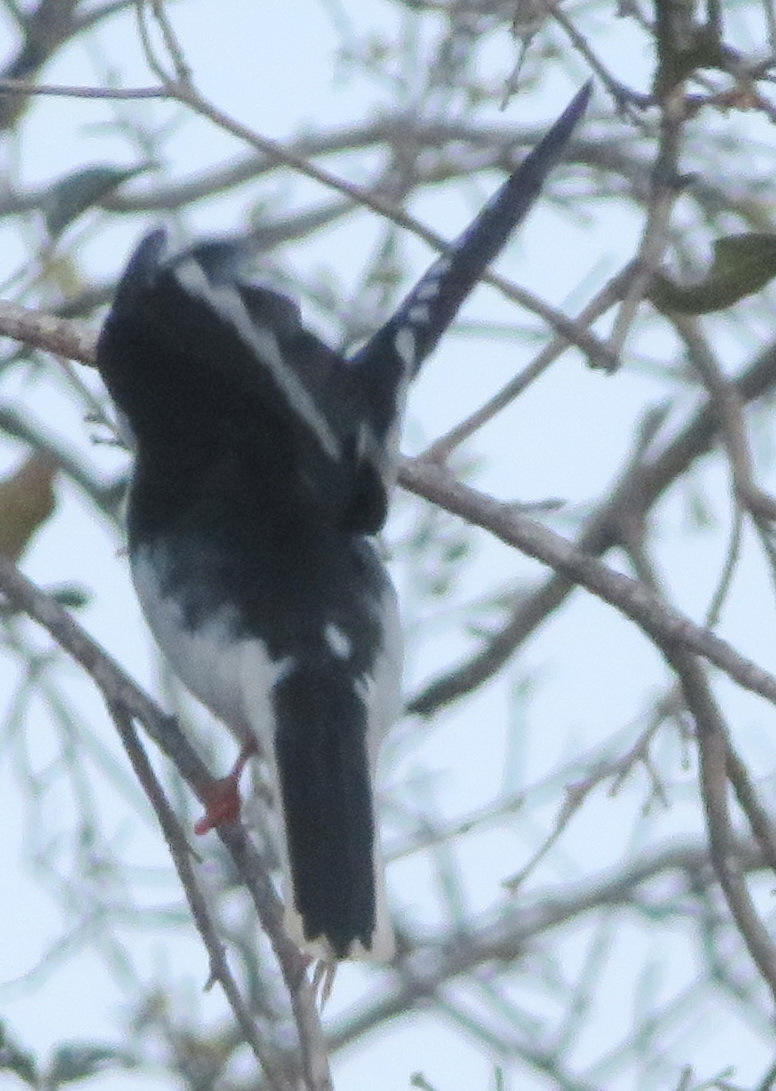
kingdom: Animalia
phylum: Chordata
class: Aves
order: Passeriformes
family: Prionopidae
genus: Prionops
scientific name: Prionops plumatus
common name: White-crested helmetshrike
